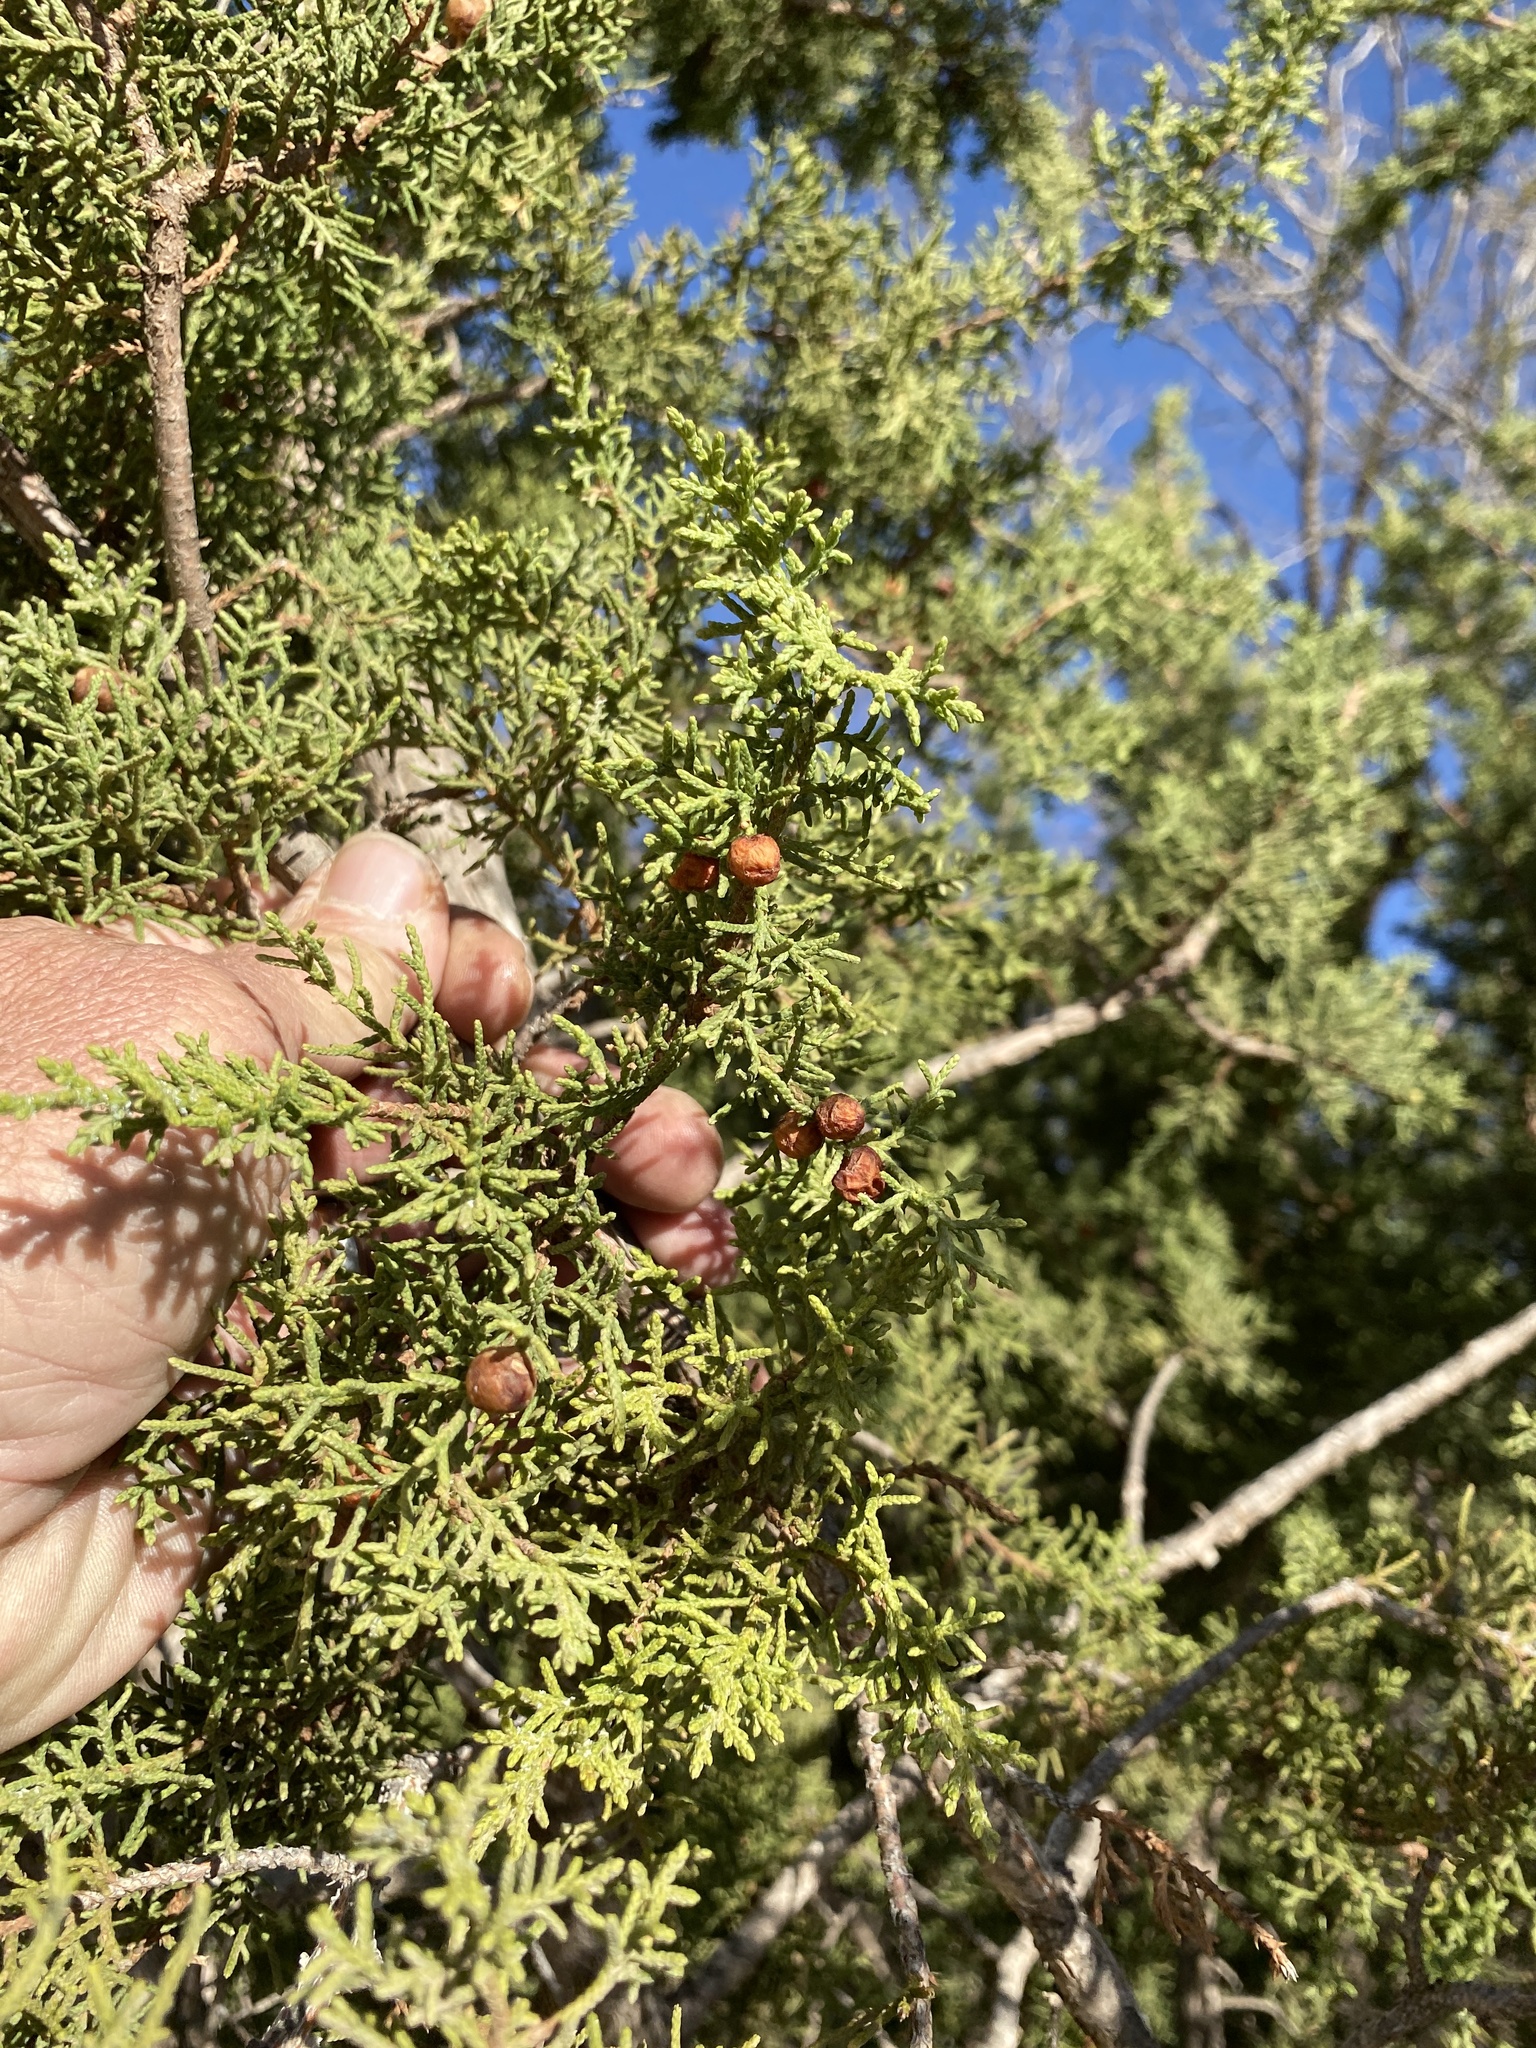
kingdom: Plantae
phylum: Tracheophyta
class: Pinopsida
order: Pinales
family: Cupressaceae
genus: Juniperus
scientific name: Juniperus pinchotii
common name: Pinchot juniper
